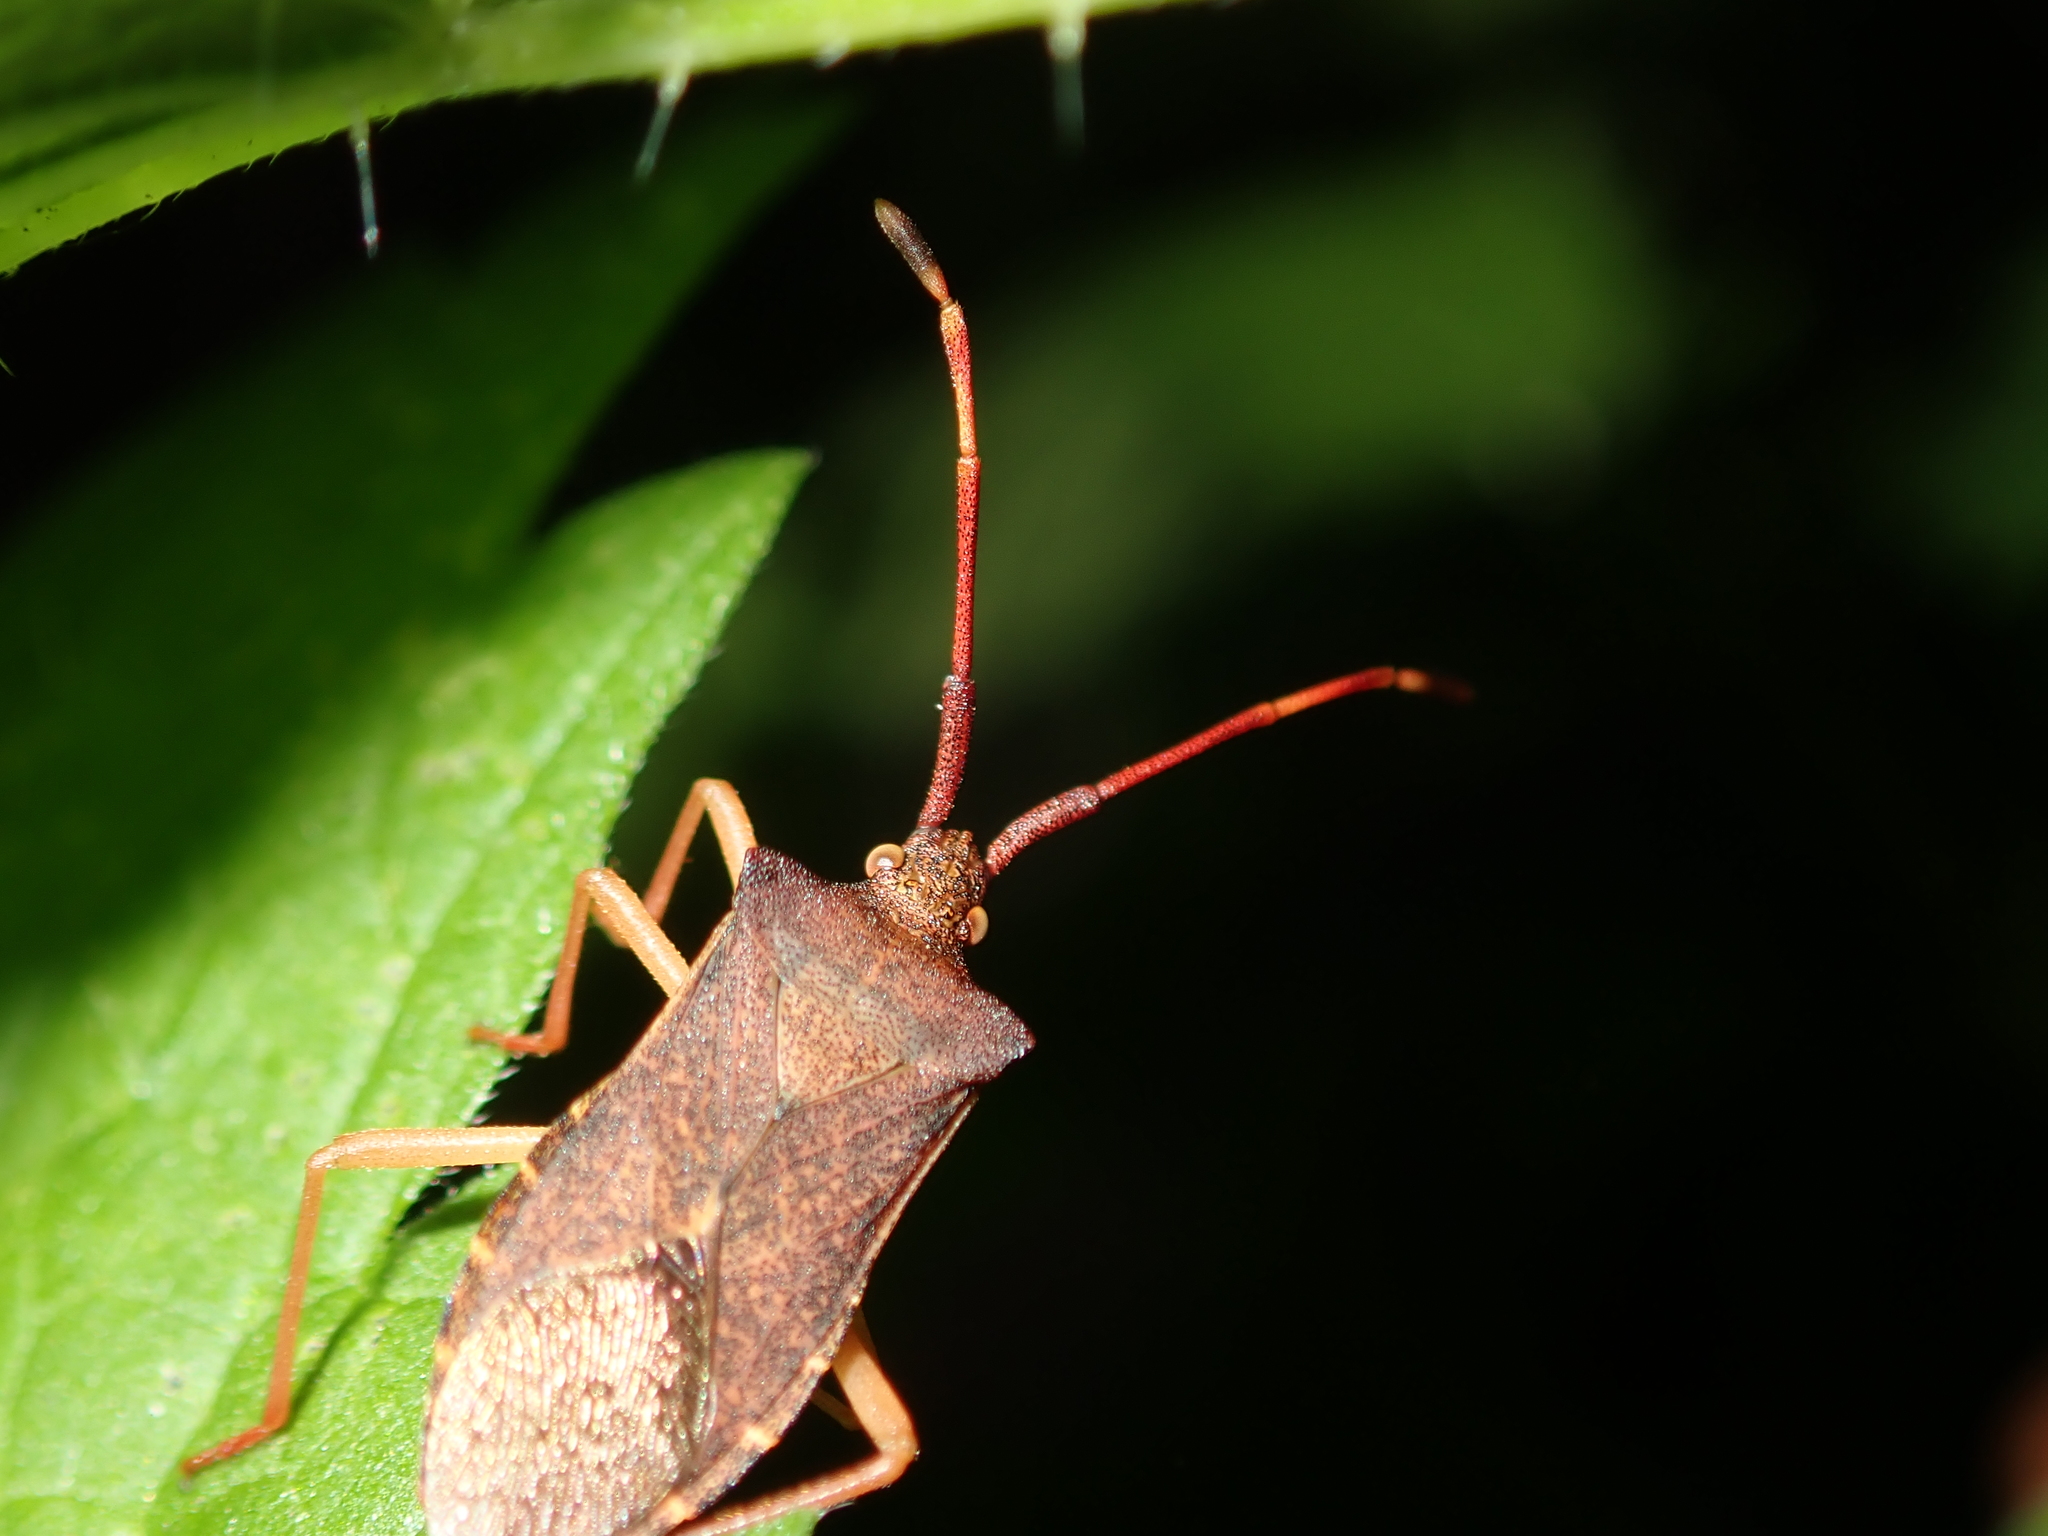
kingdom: Animalia
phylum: Arthropoda
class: Insecta
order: Hemiptera
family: Coreidae
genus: Gonocerus
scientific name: Gonocerus acuteangulatus
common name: Box bug
